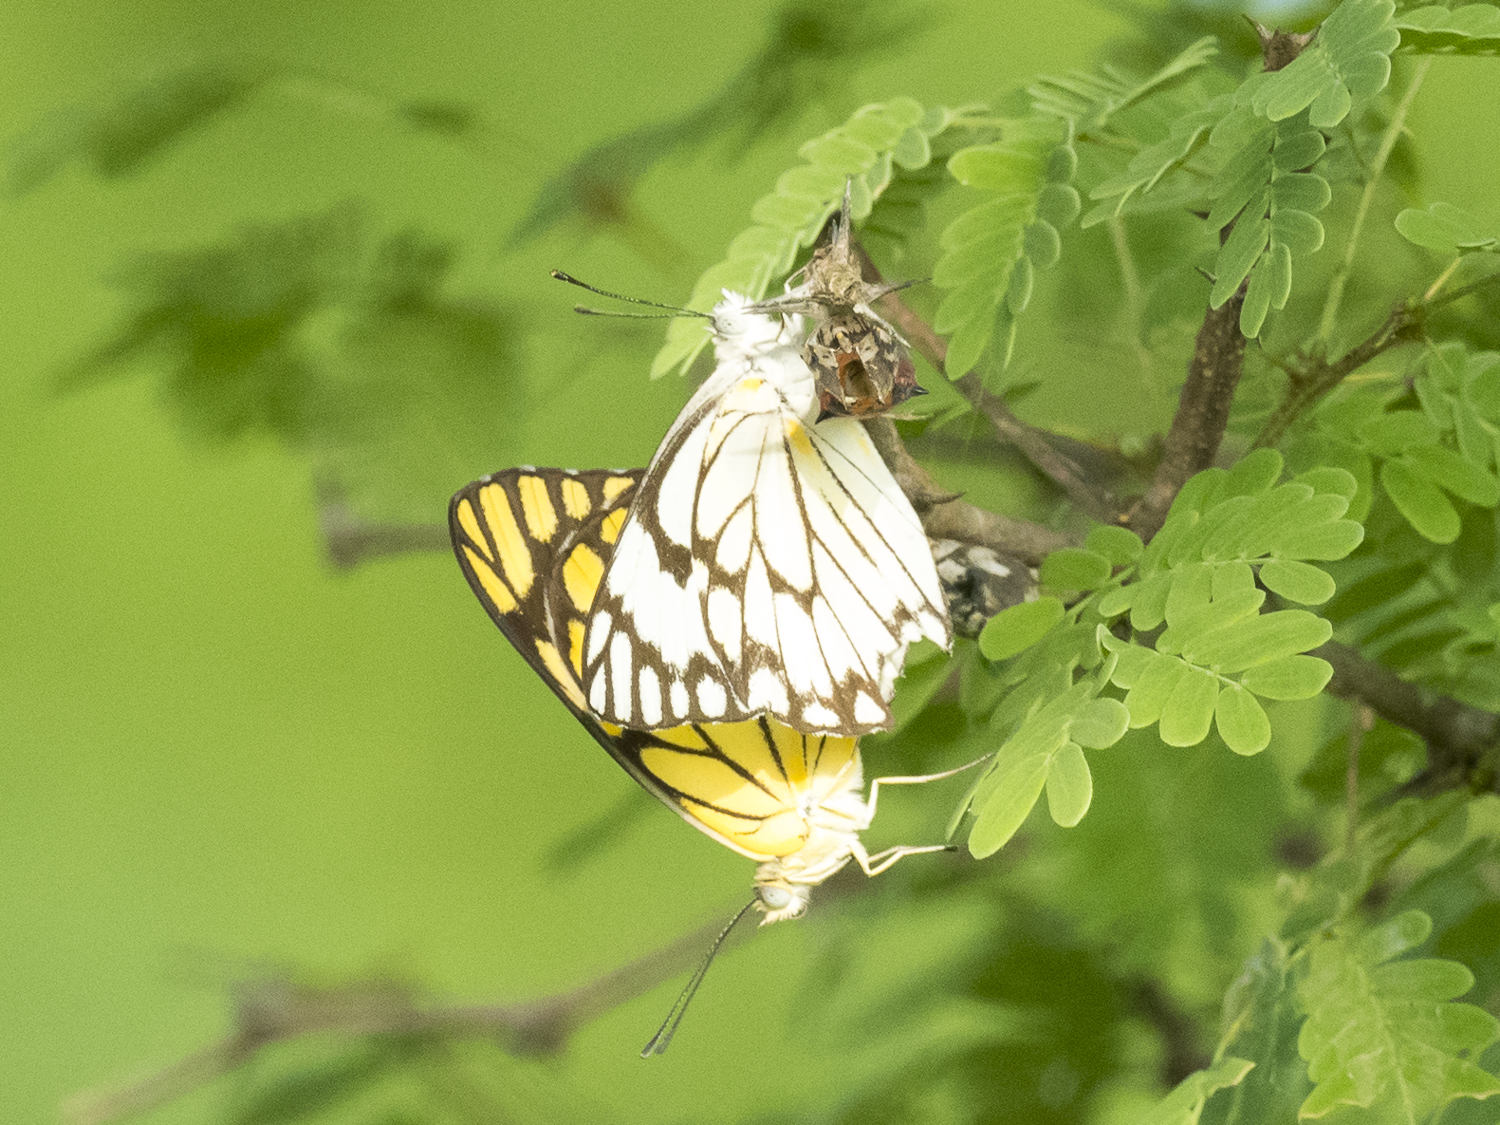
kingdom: Animalia
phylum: Arthropoda
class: Insecta
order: Lepidoptera
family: Pieridae
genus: Belenois
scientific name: Belenois aurota
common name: Brown-veined white
